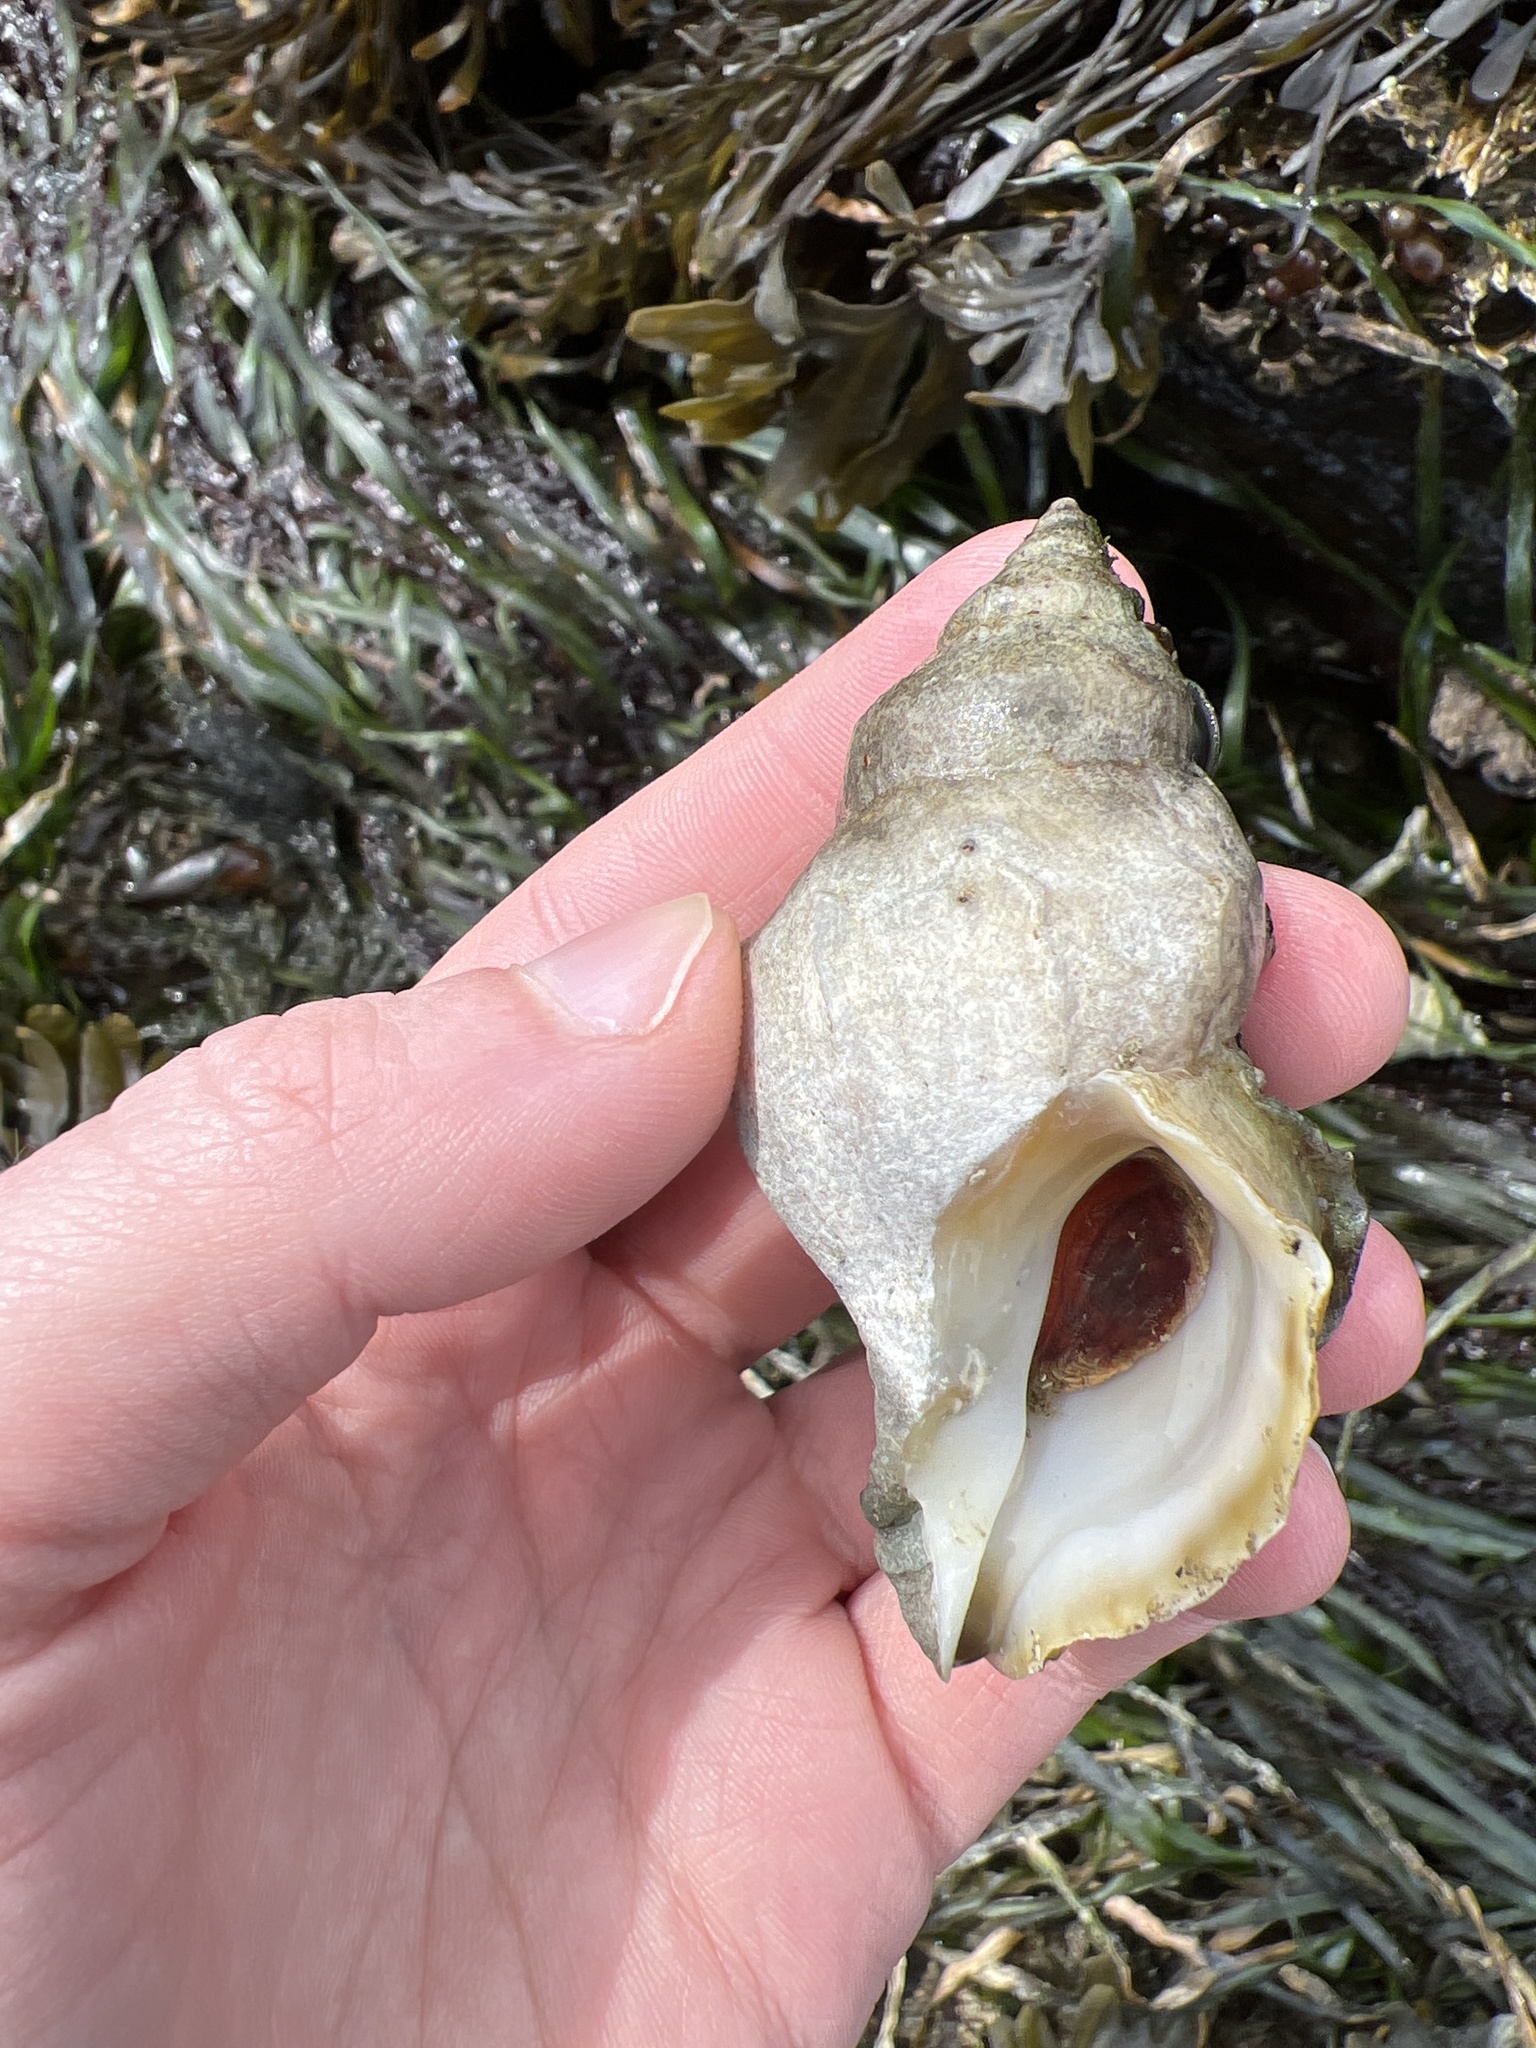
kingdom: Animalia
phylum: Mollusca
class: Gastropoda
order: Neogastropoda
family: Muricidae
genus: Nucella
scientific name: Nucella lamellosa
